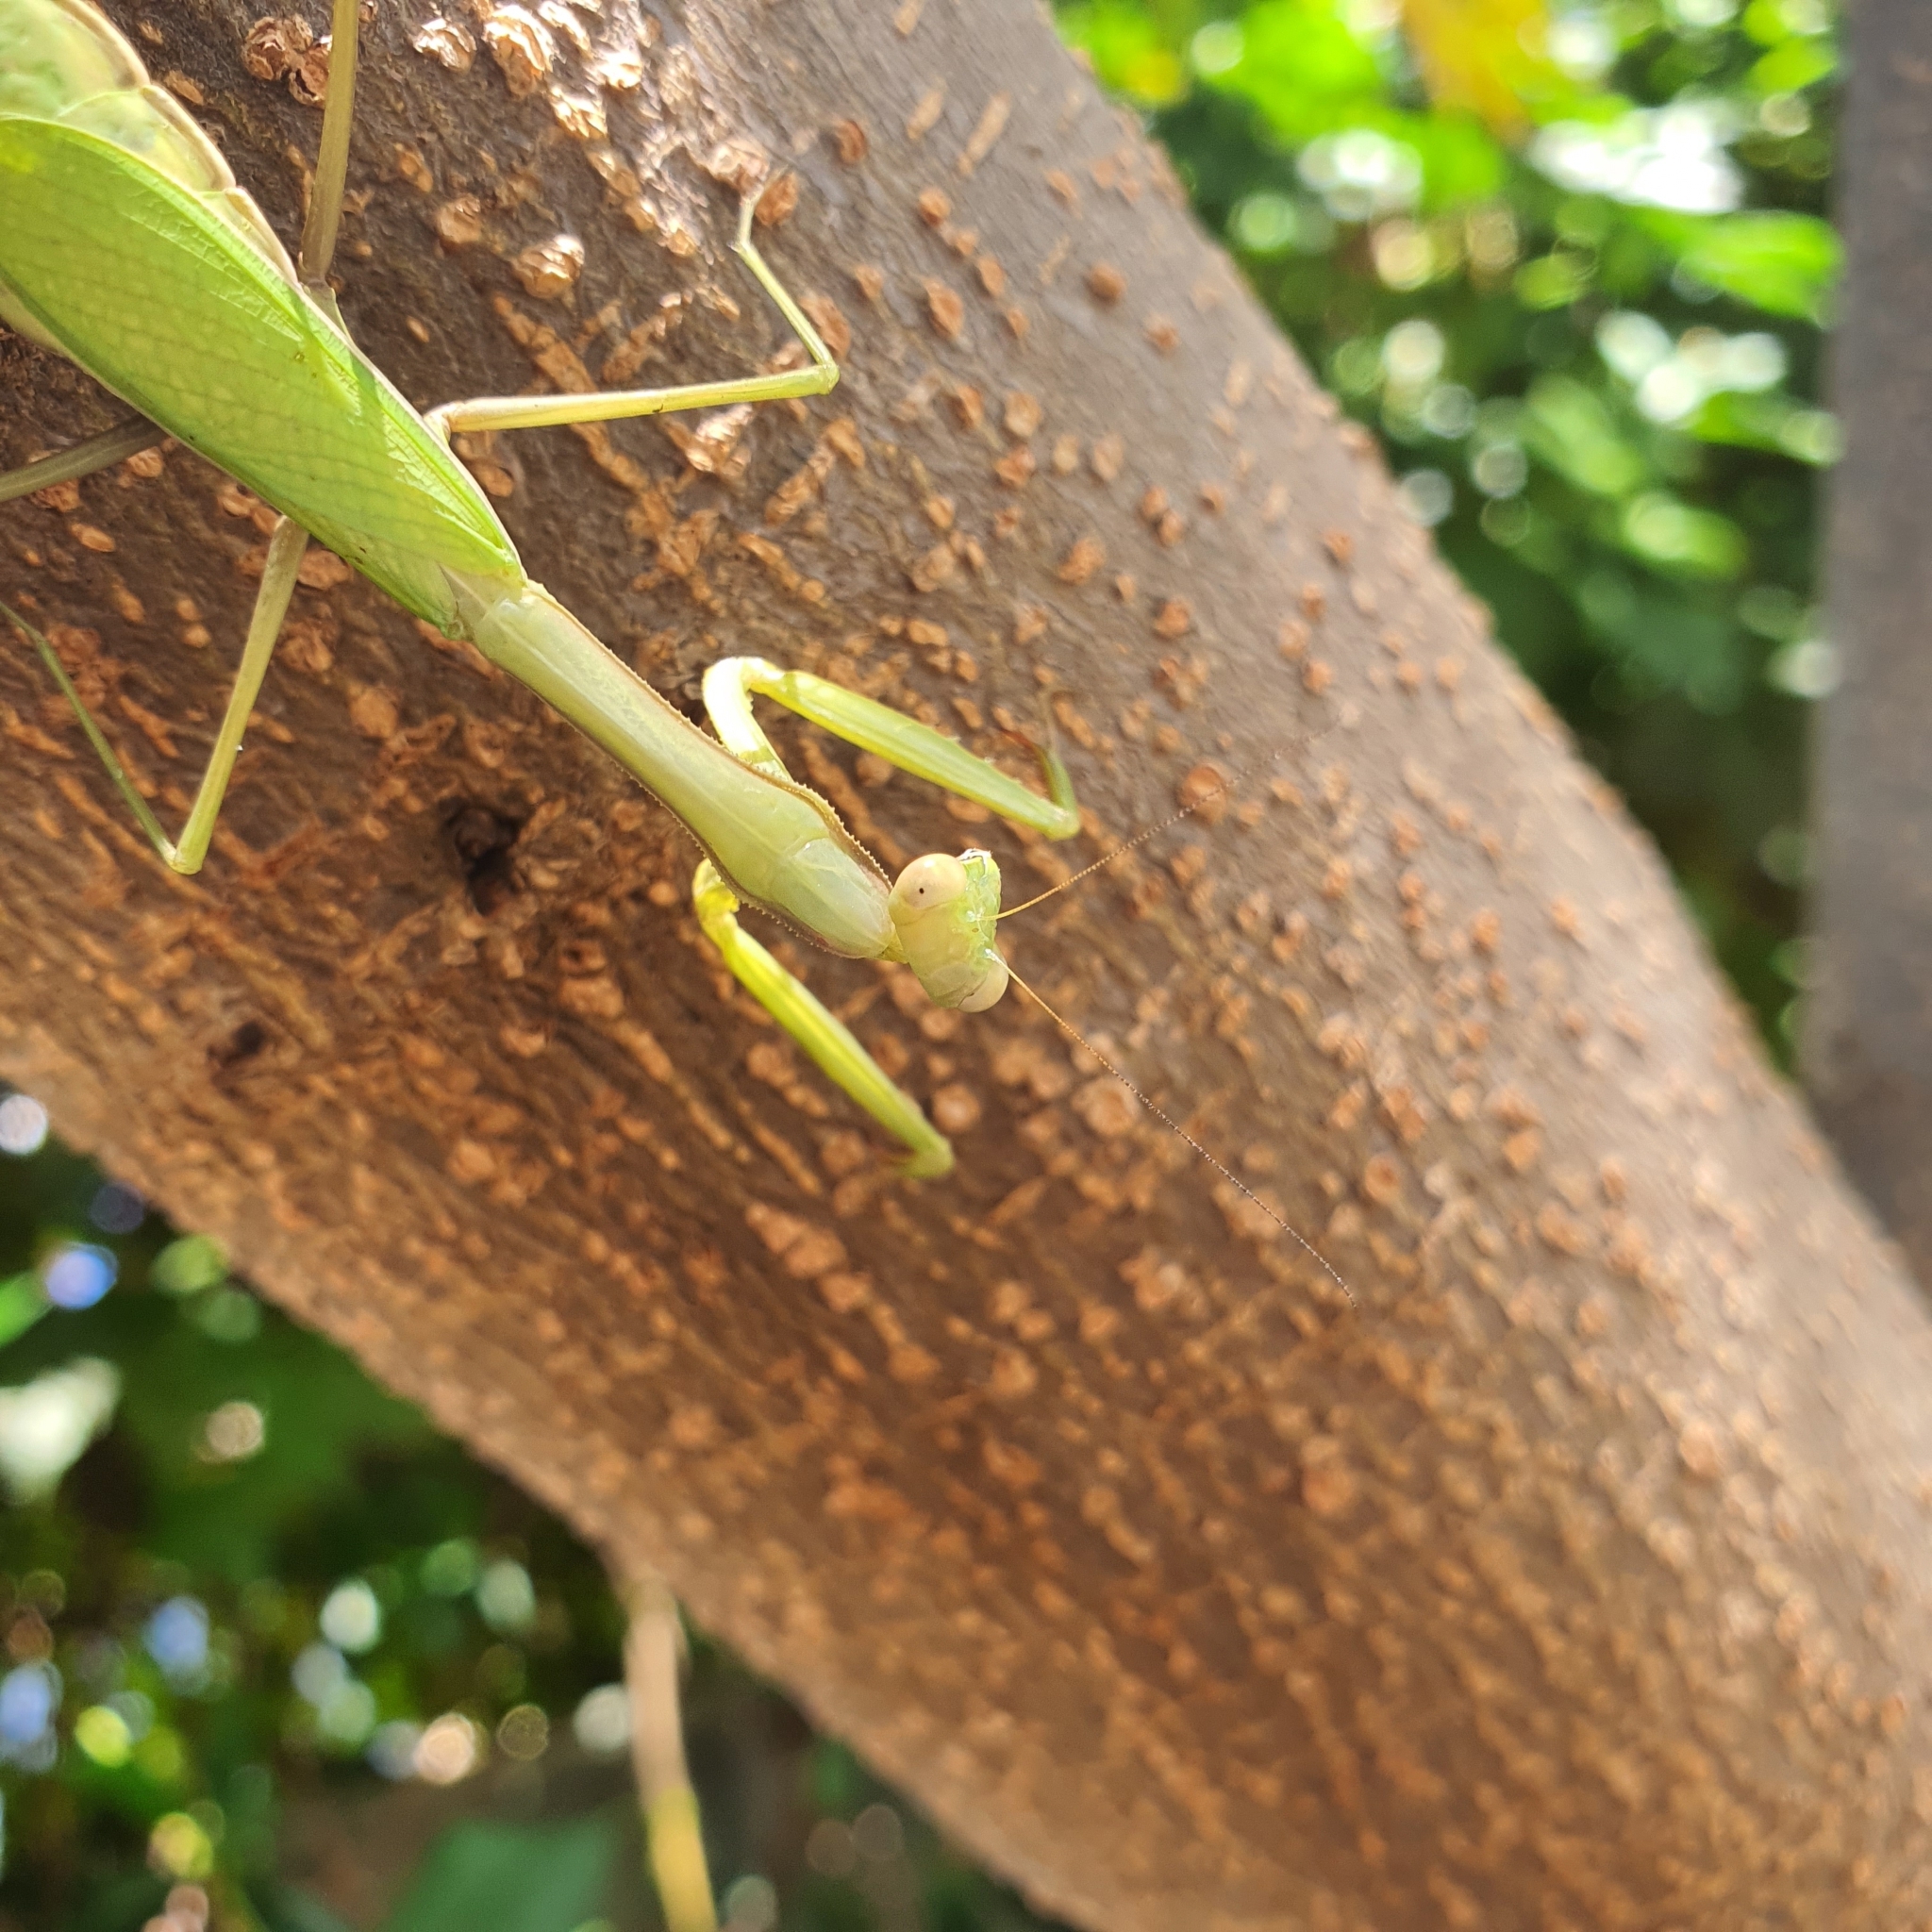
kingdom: Animalia
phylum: Arthropoda
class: Insecta
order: Mantodea
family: Mantidae
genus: Pseudomantis
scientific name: Pseudomantis albofimbriata
